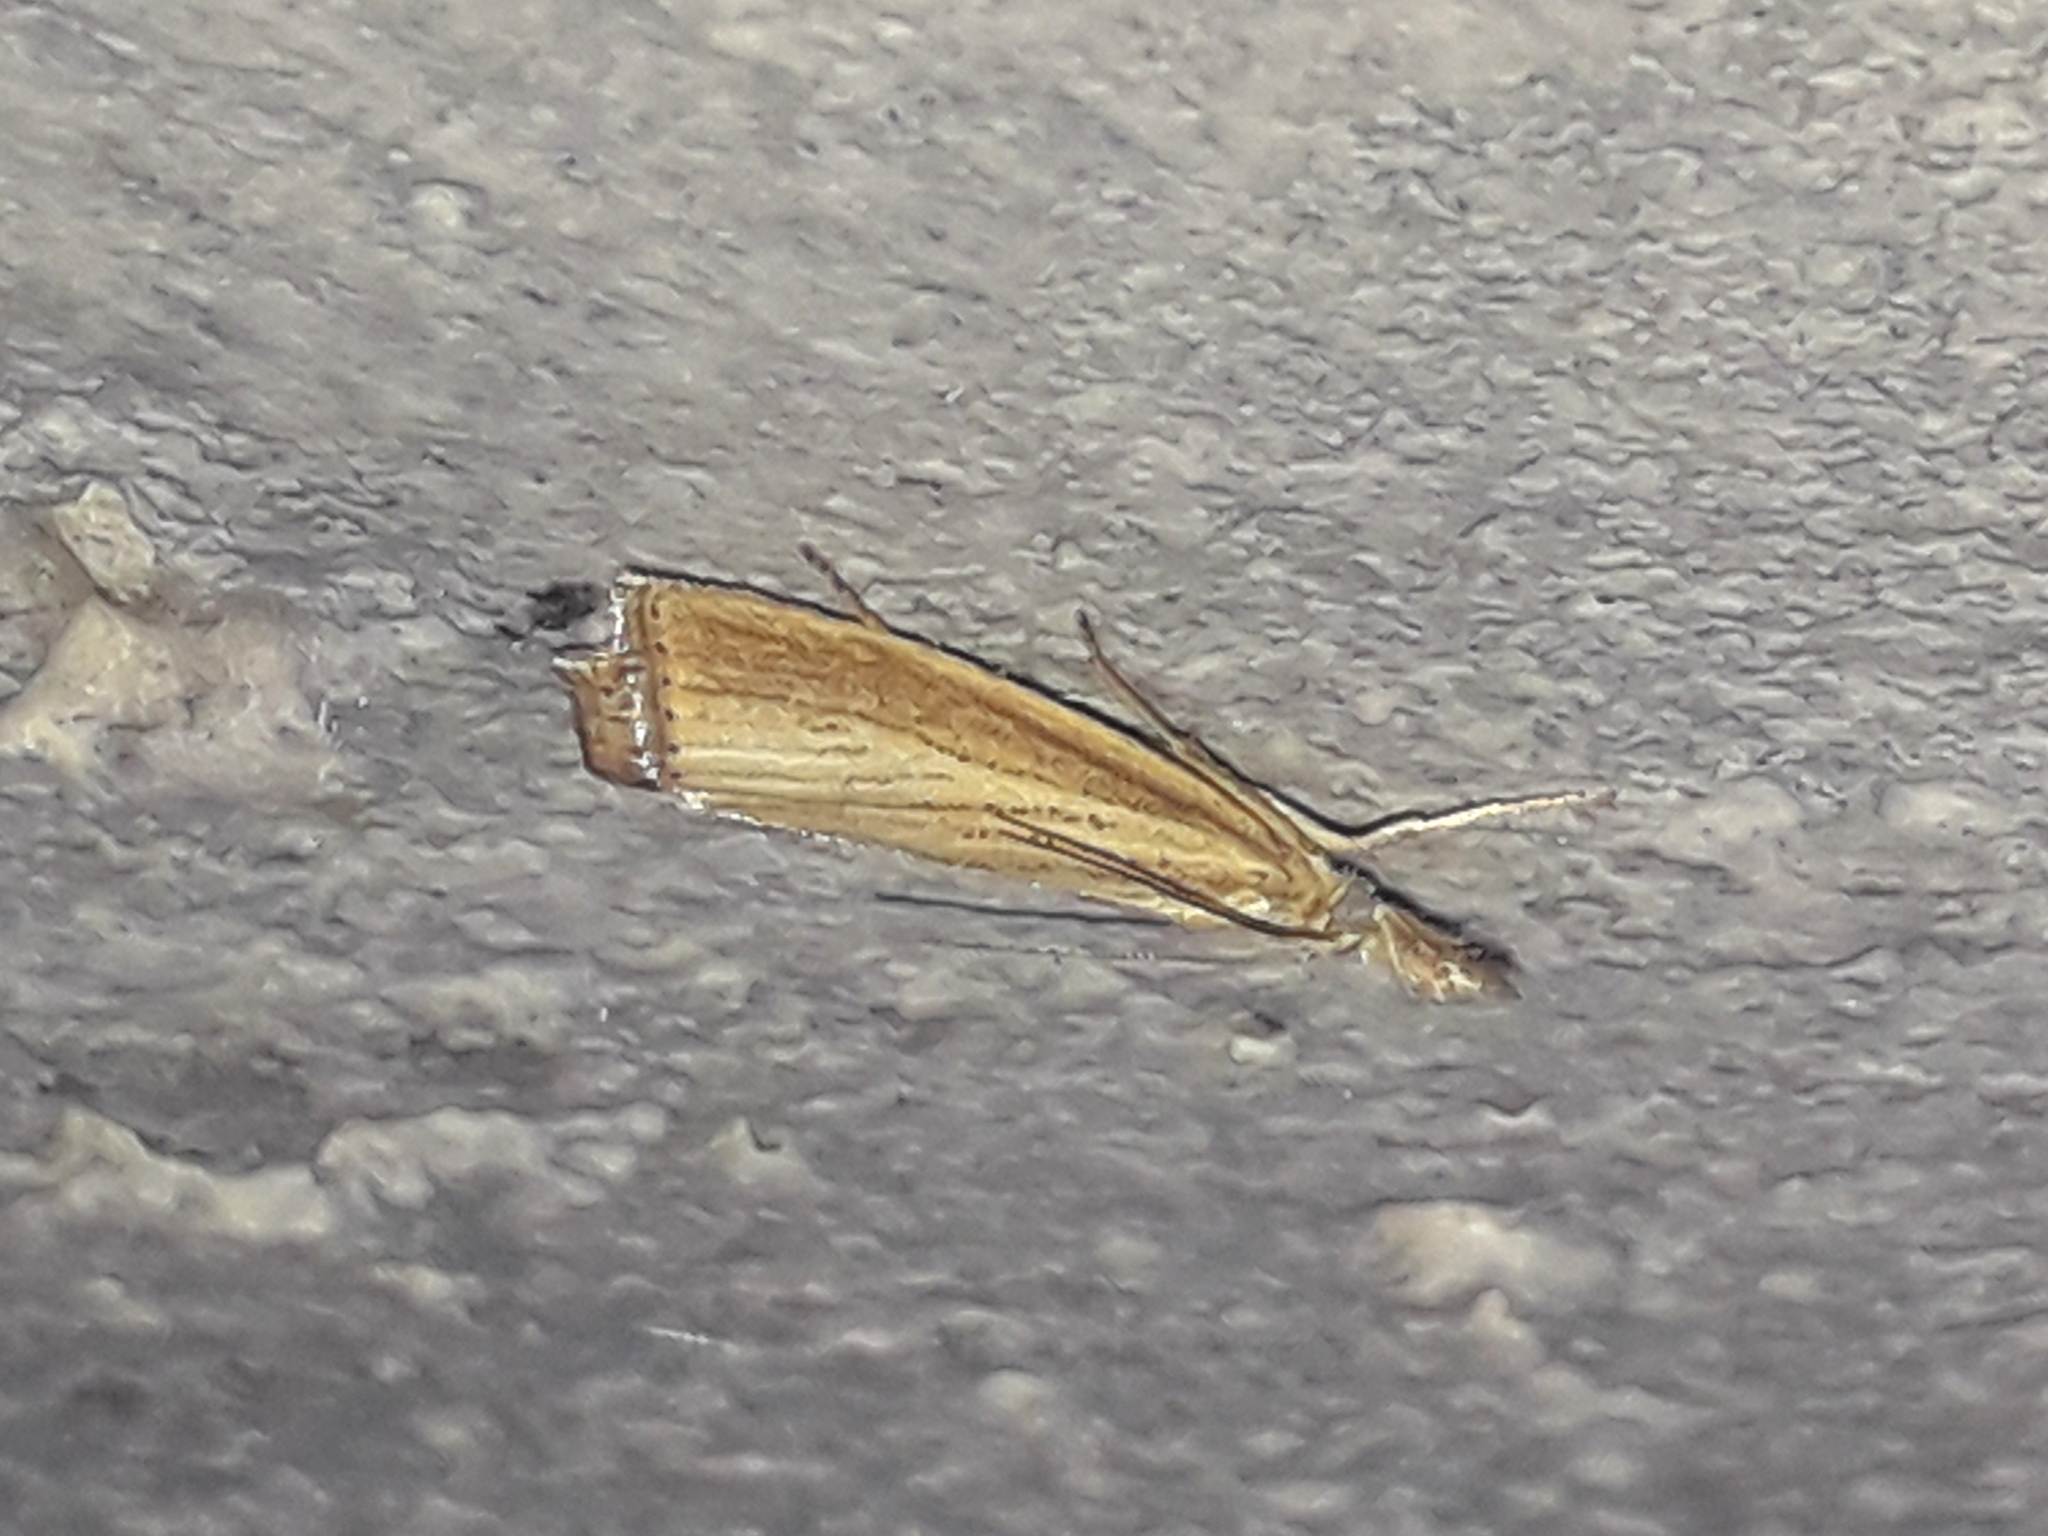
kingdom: Animalia
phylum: Arthropoda
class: Insecta
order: Lepidoptera
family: Crambidae
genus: Agriphila
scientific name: Agriphila straminella
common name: Straw grass-veneer
